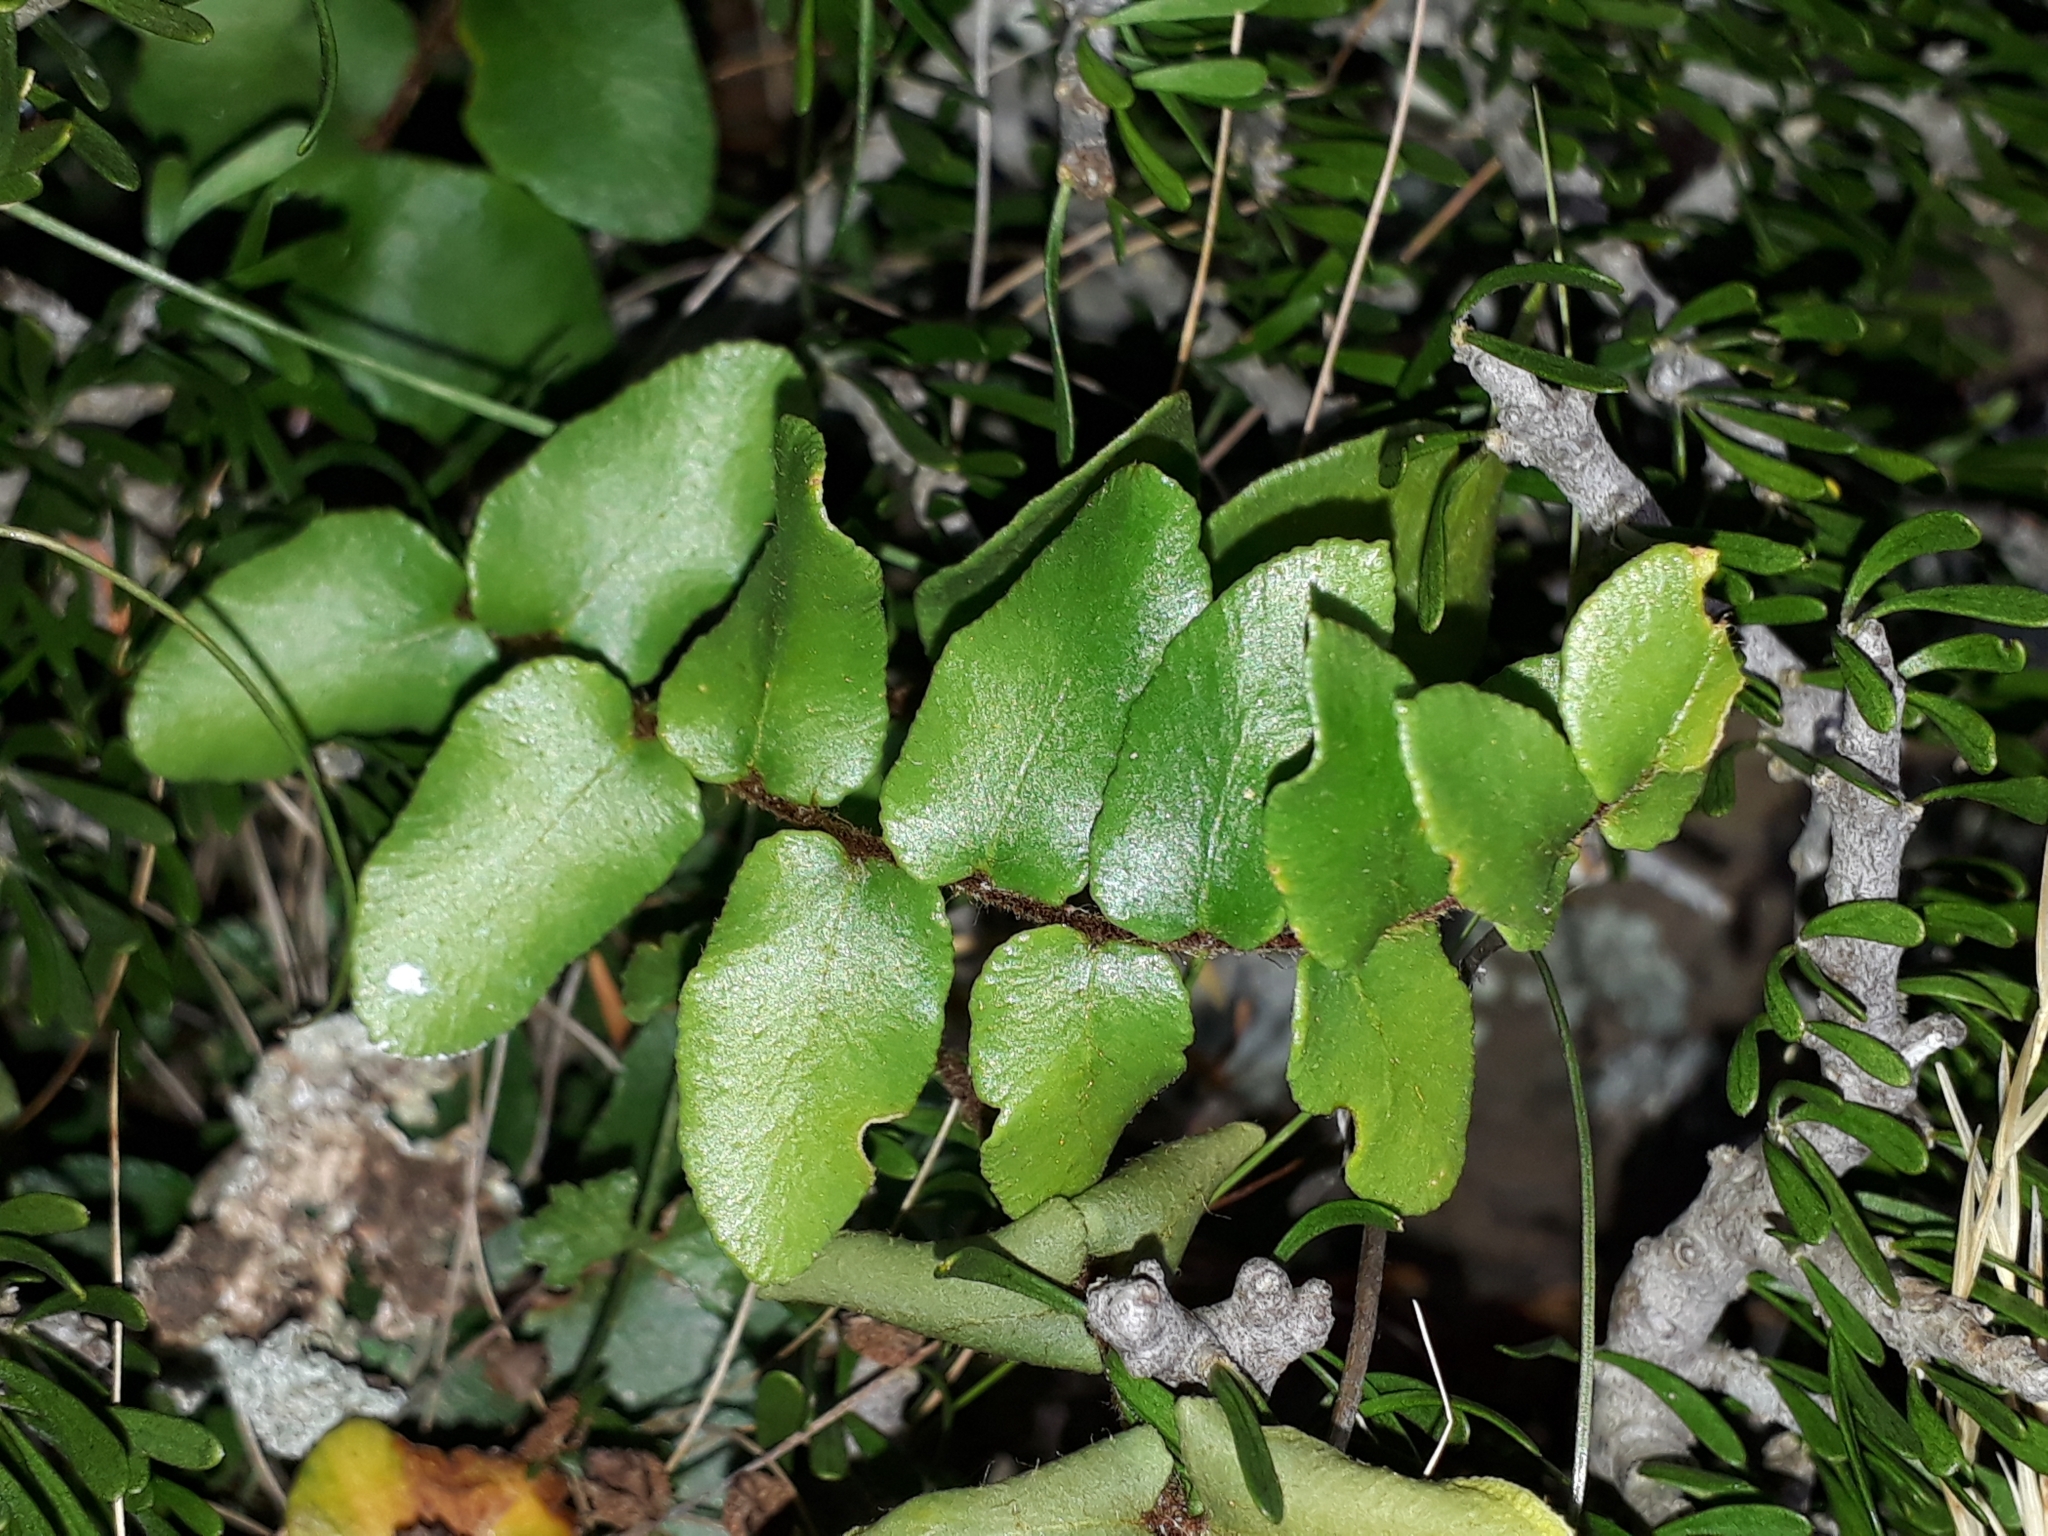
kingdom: Plantae
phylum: Tracheophyta
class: Polypodiopsida
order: Polypodiales
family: Pteridaceae
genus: Pellaea
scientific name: Pellaea calidirupium
